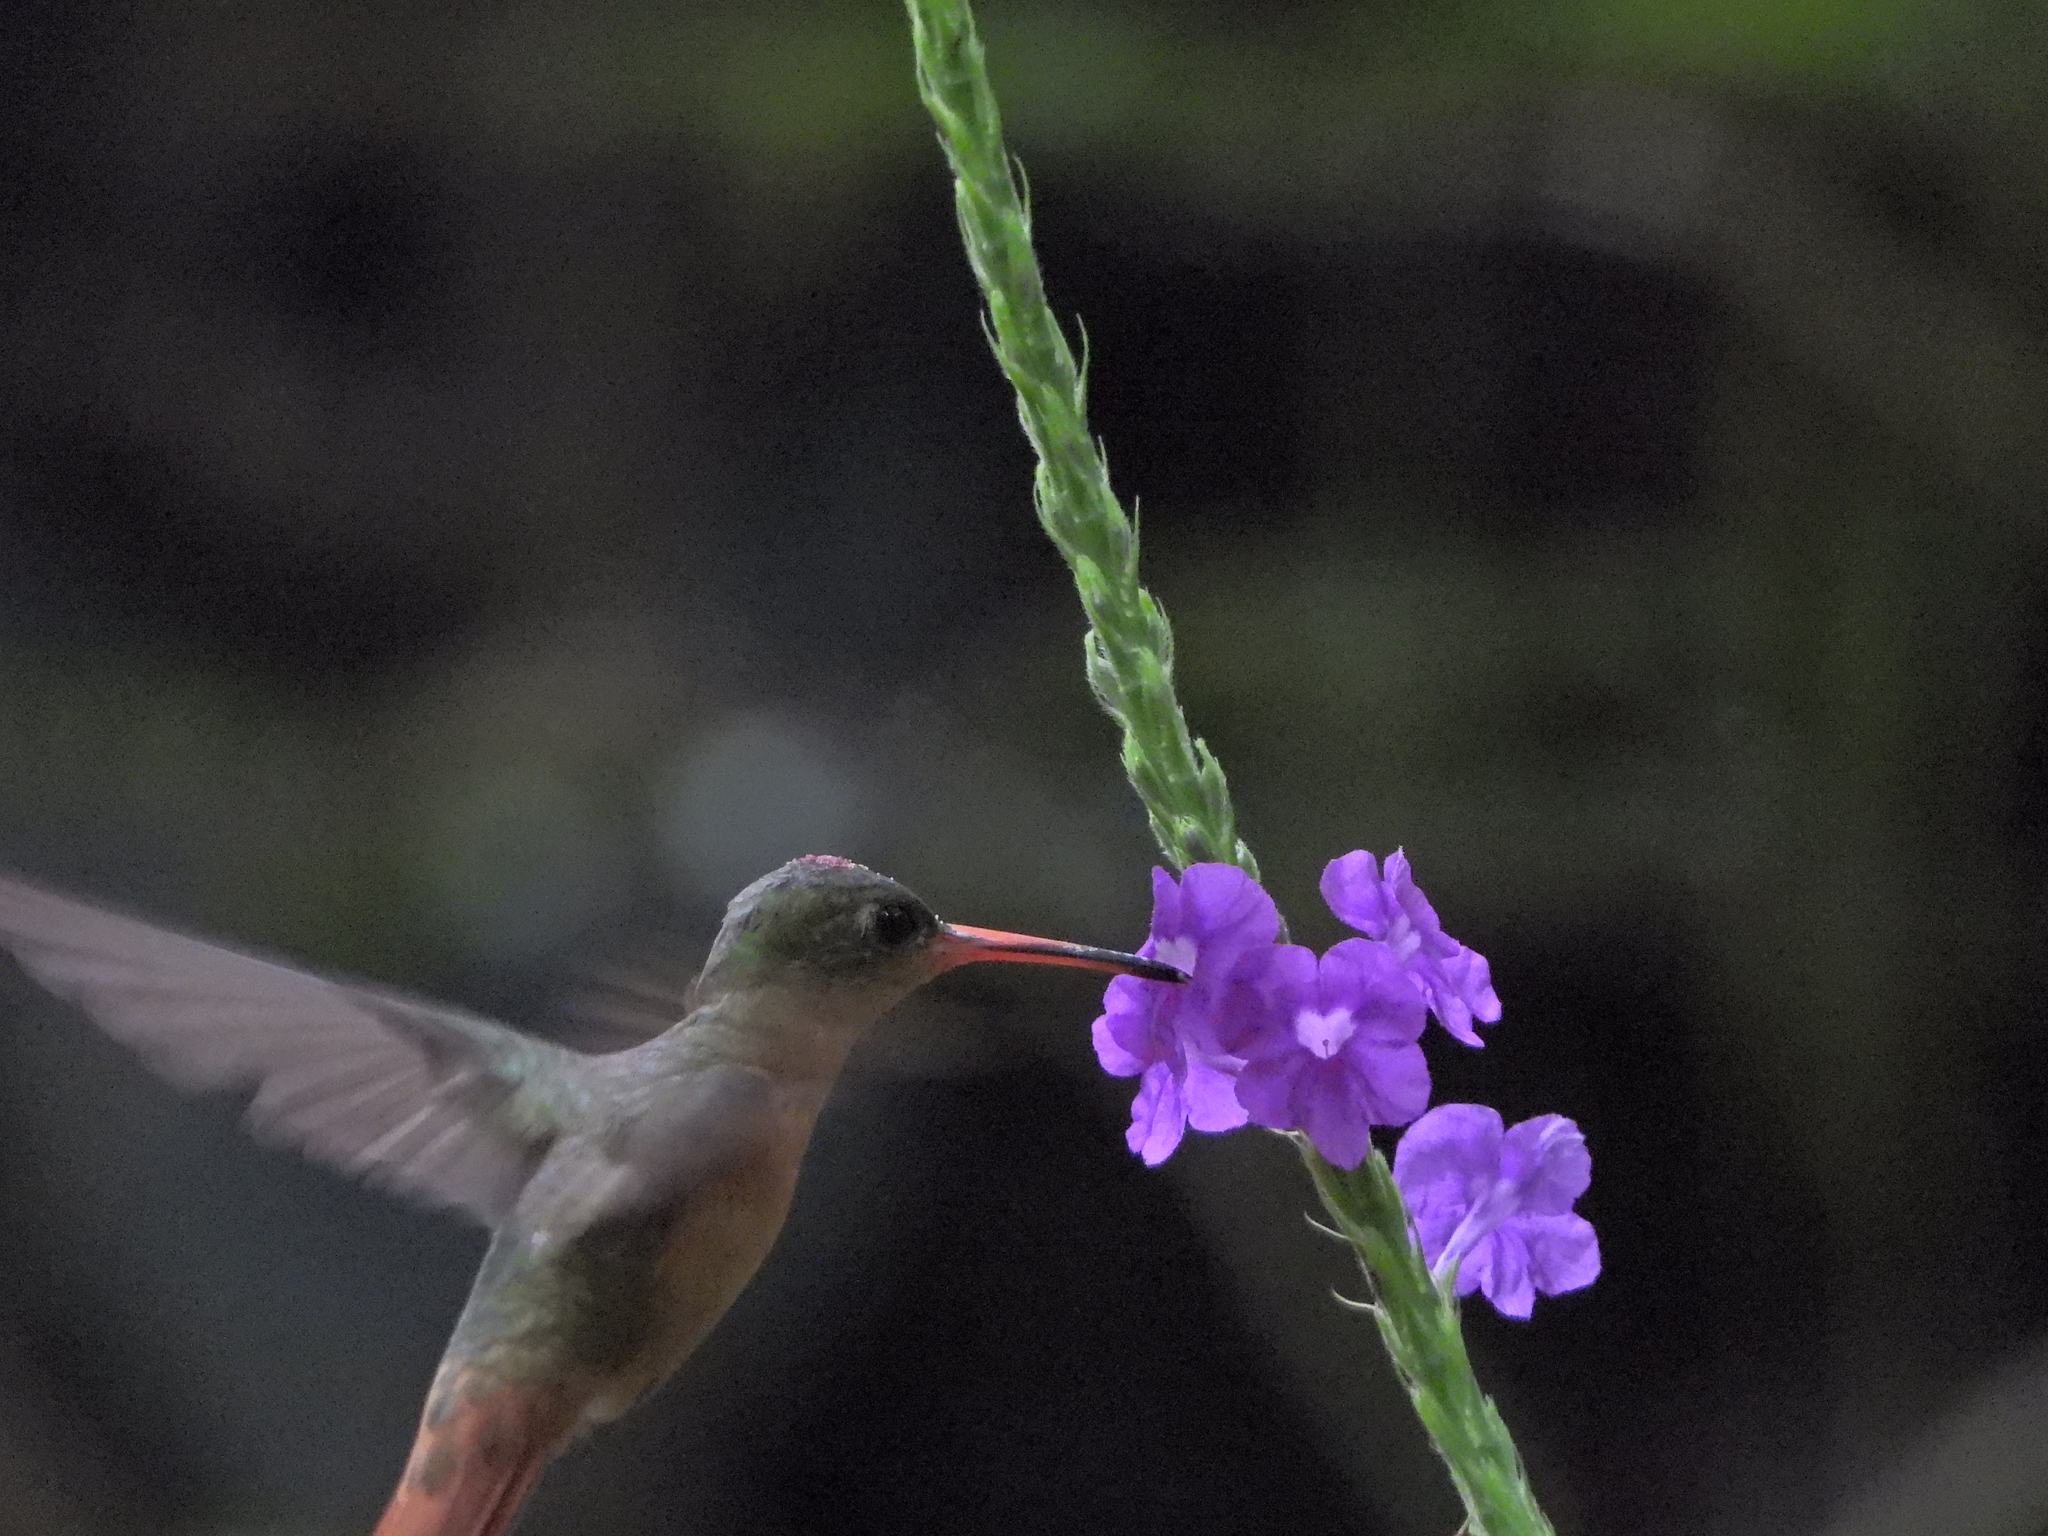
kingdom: Animalia
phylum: Chordata
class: Aves
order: Apodiformes
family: Trochilidae
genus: Amazilia
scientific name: Amazilia rutila
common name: Cinnamon hummingbird
